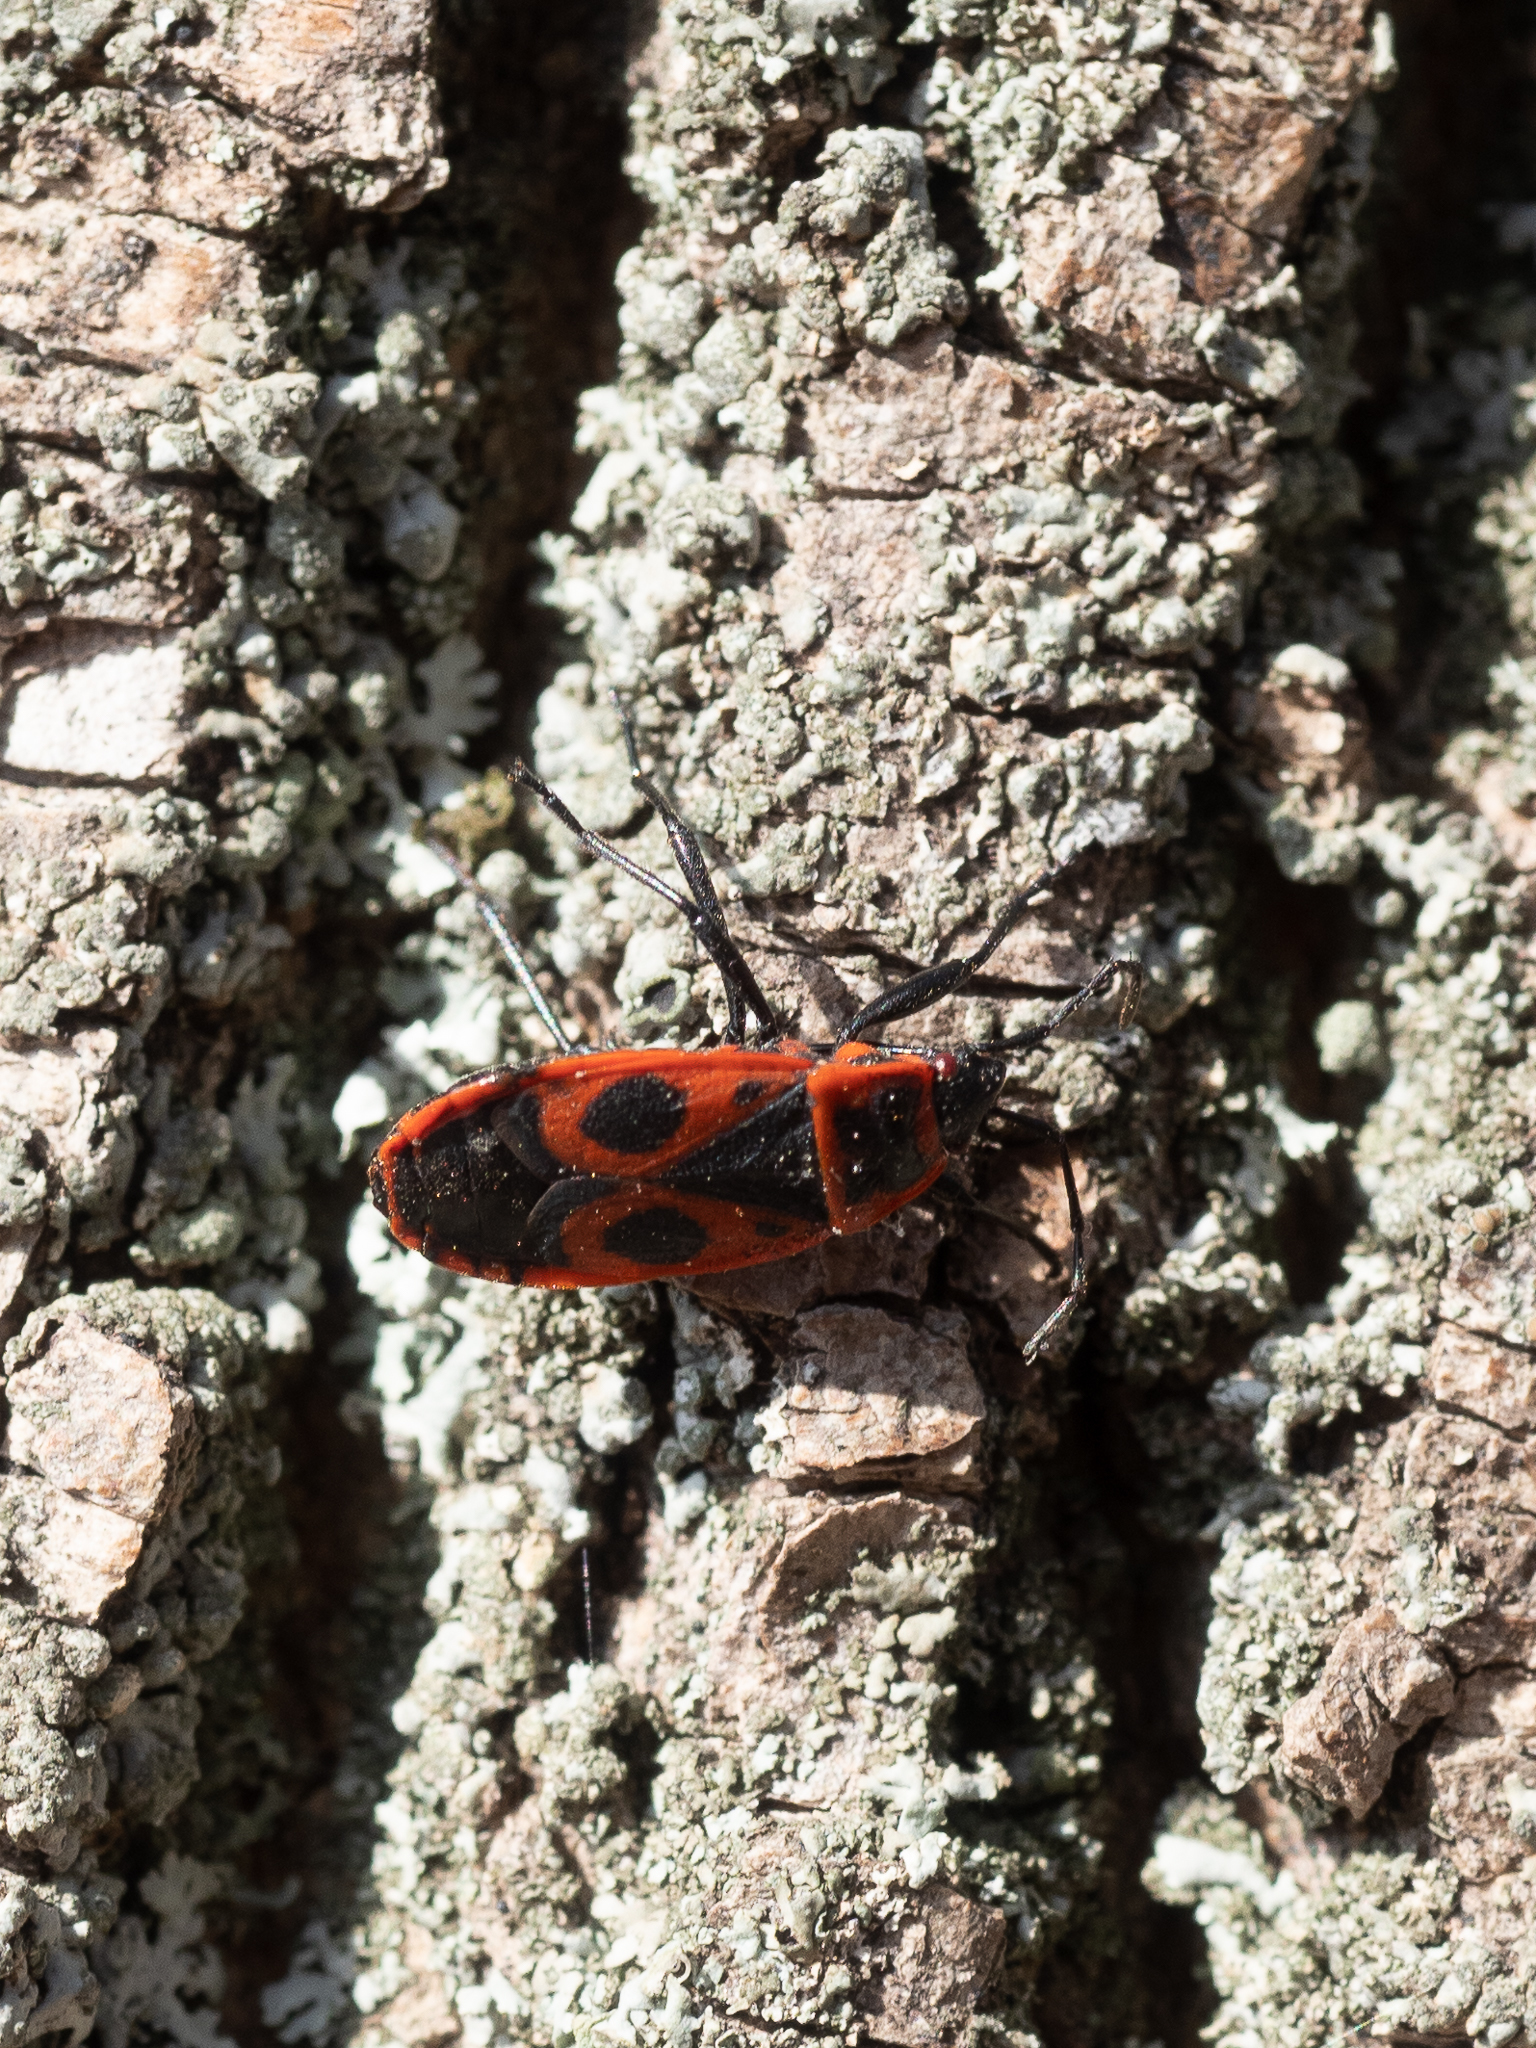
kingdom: Animalia
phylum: Arthropoda
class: Insecta
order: Hemiptera
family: Pyrrhocoridae
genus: Pyrrhocoris
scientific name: Pyrrhocoris apterus
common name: Firebug
